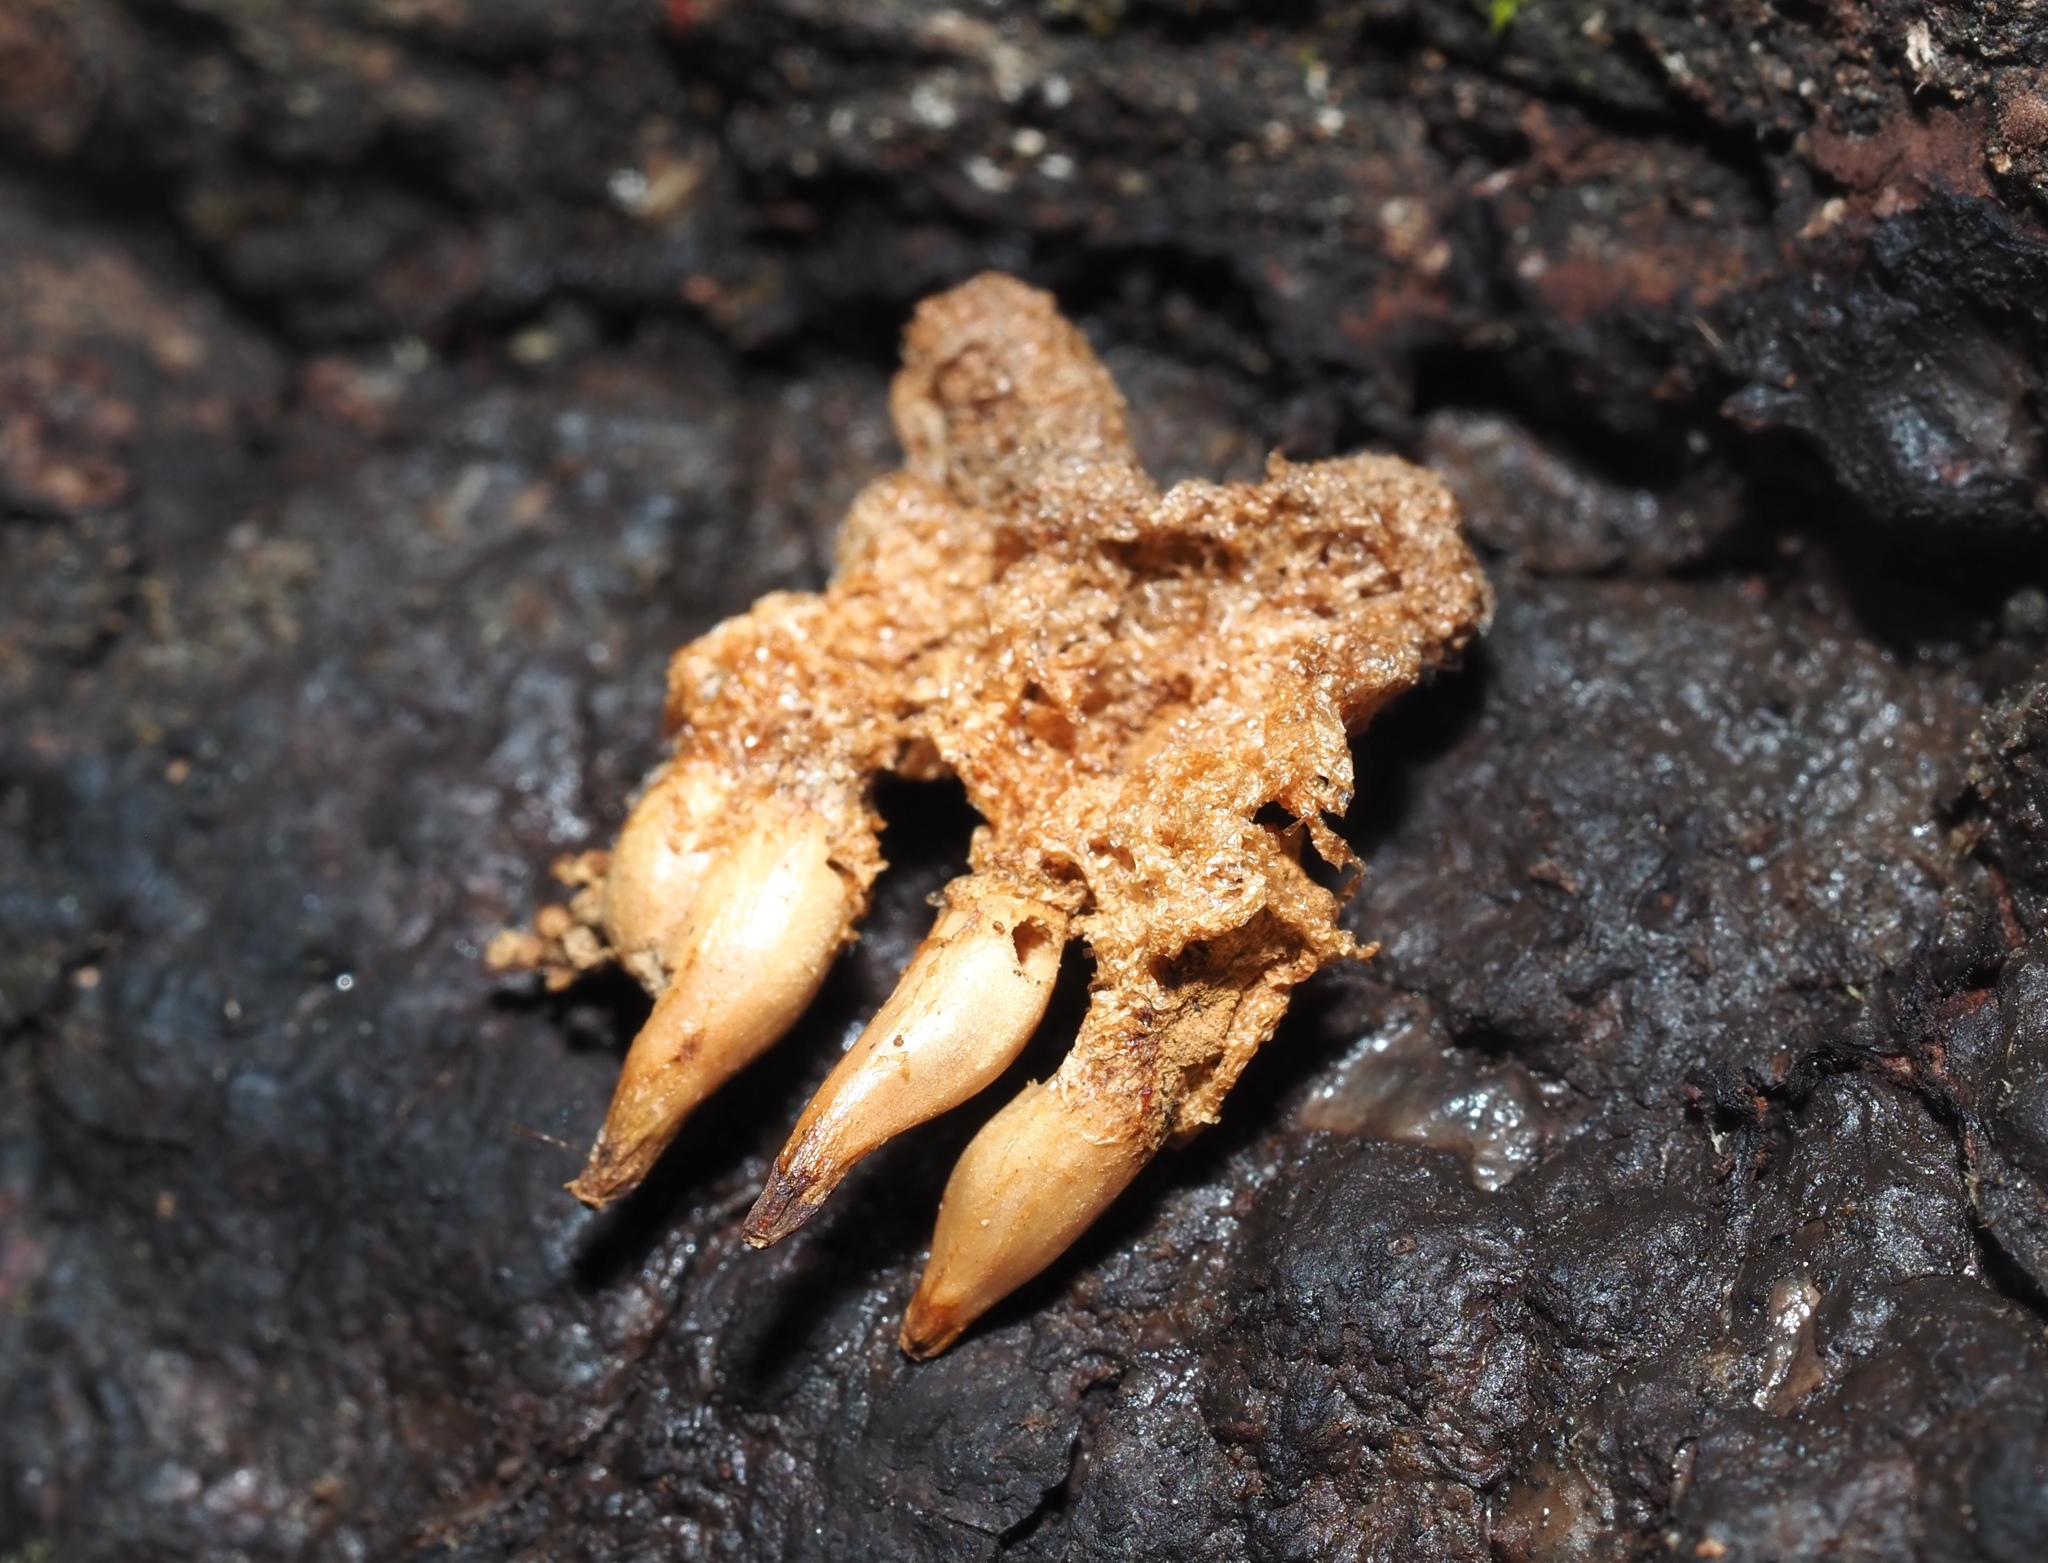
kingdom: Animalia
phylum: Arthropoda
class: Insecta
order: Hymenoptera
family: Cynipidae
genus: Callirhytis
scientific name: Callirhytis
